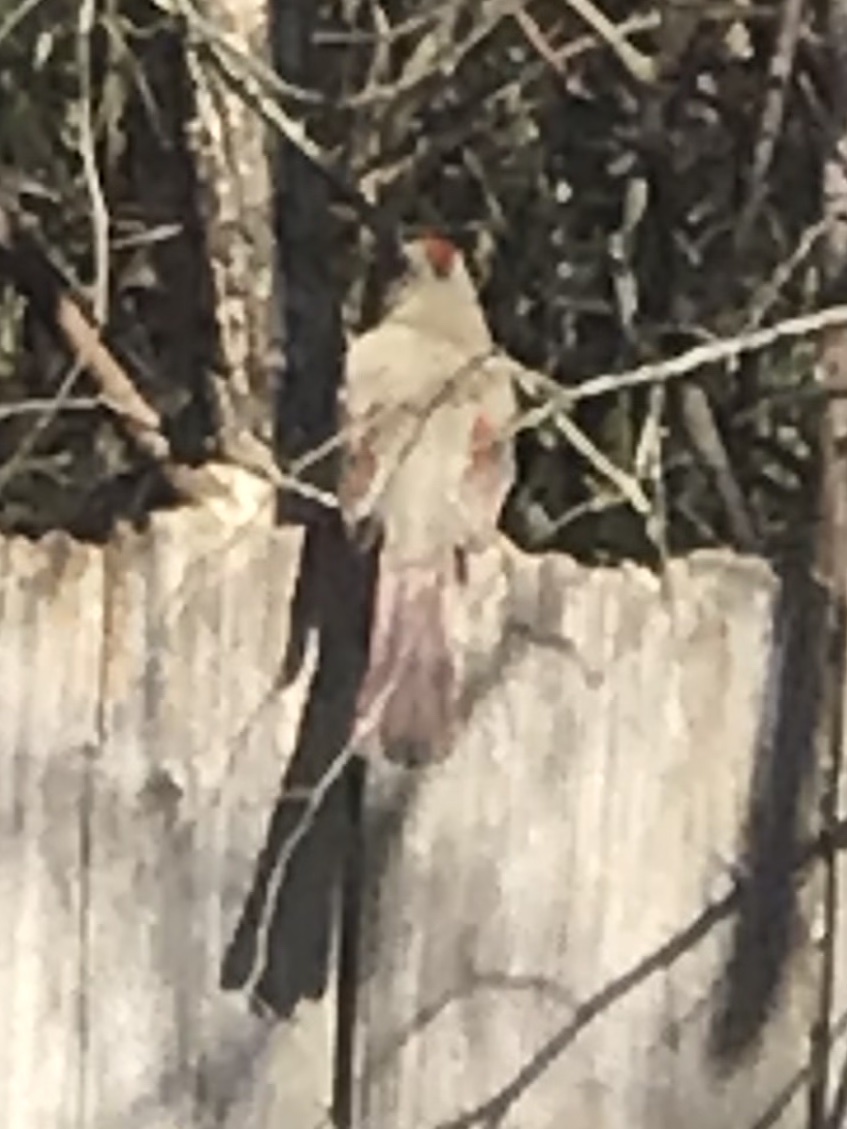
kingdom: Animalia
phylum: Chordata
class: Aves
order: Passeriformes
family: Cardinalidae
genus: Cardinalis
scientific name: Cardinalis cardinalis
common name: Northern cardinal
